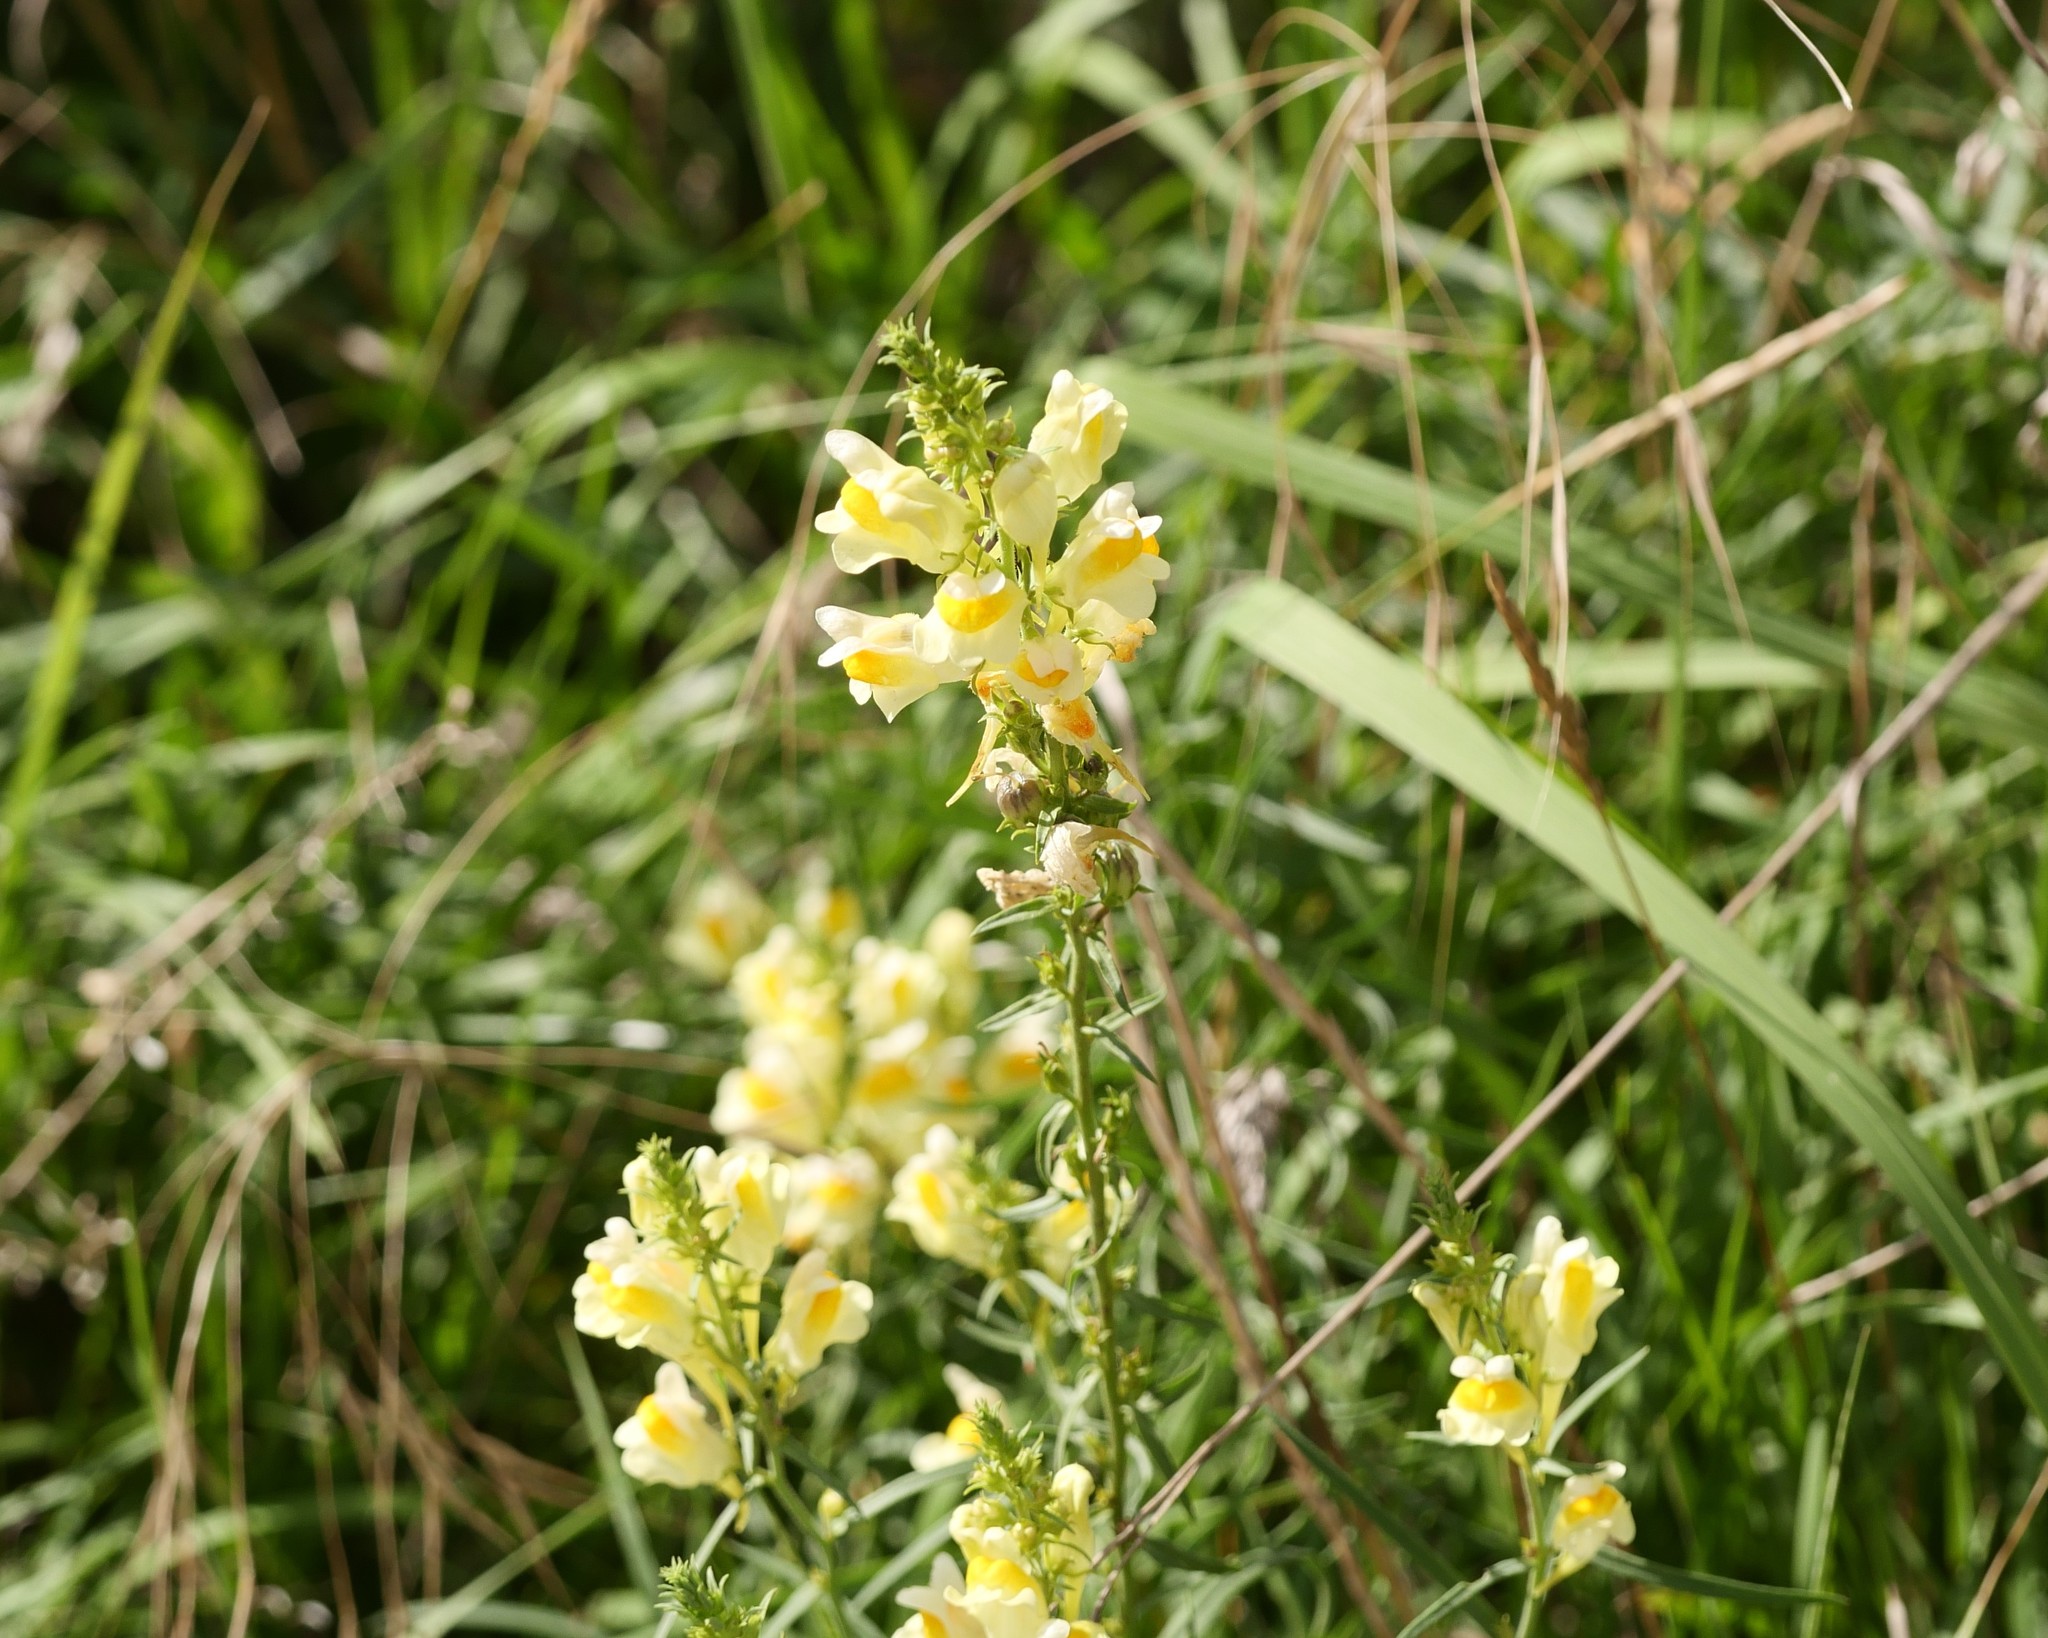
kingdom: Plantae
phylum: Tracheophyta
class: Magnoliopsida
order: Lamiales
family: Plantaginaceae
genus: Linaria
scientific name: Linaria vulgaris
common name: Butter and eggs
